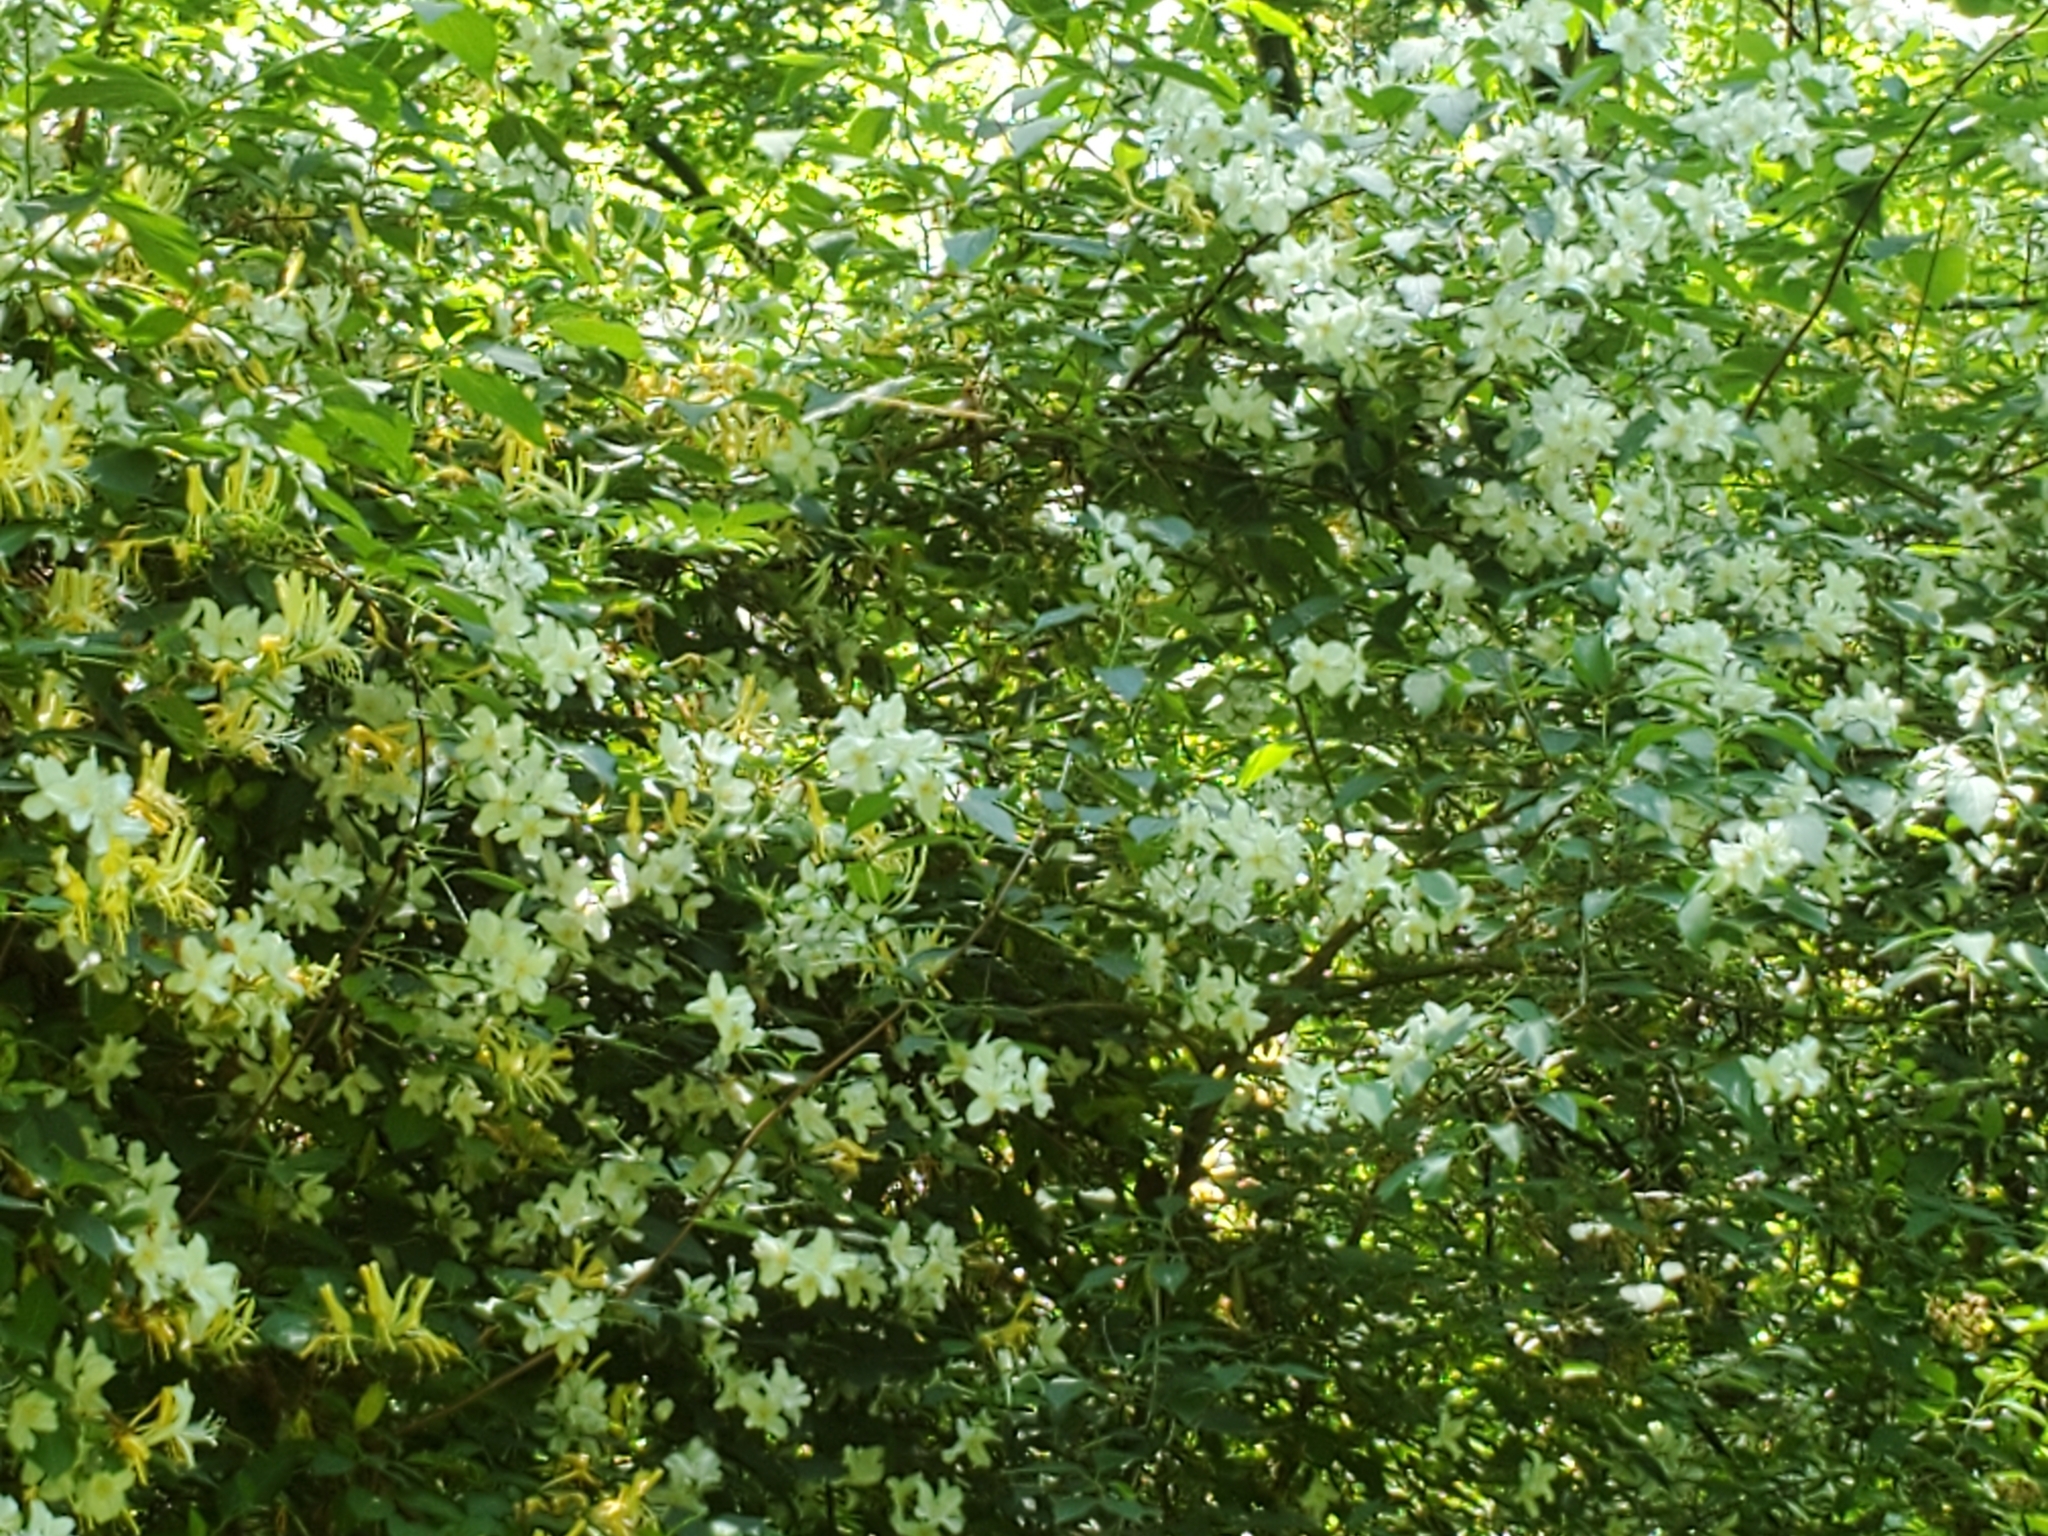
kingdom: Plantae
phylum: Tracheophyta
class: Magnoliopsida
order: Cornales
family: Hydrangeaceae
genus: Philadelphus
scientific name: Philadelphus coronarius
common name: Mock orange
